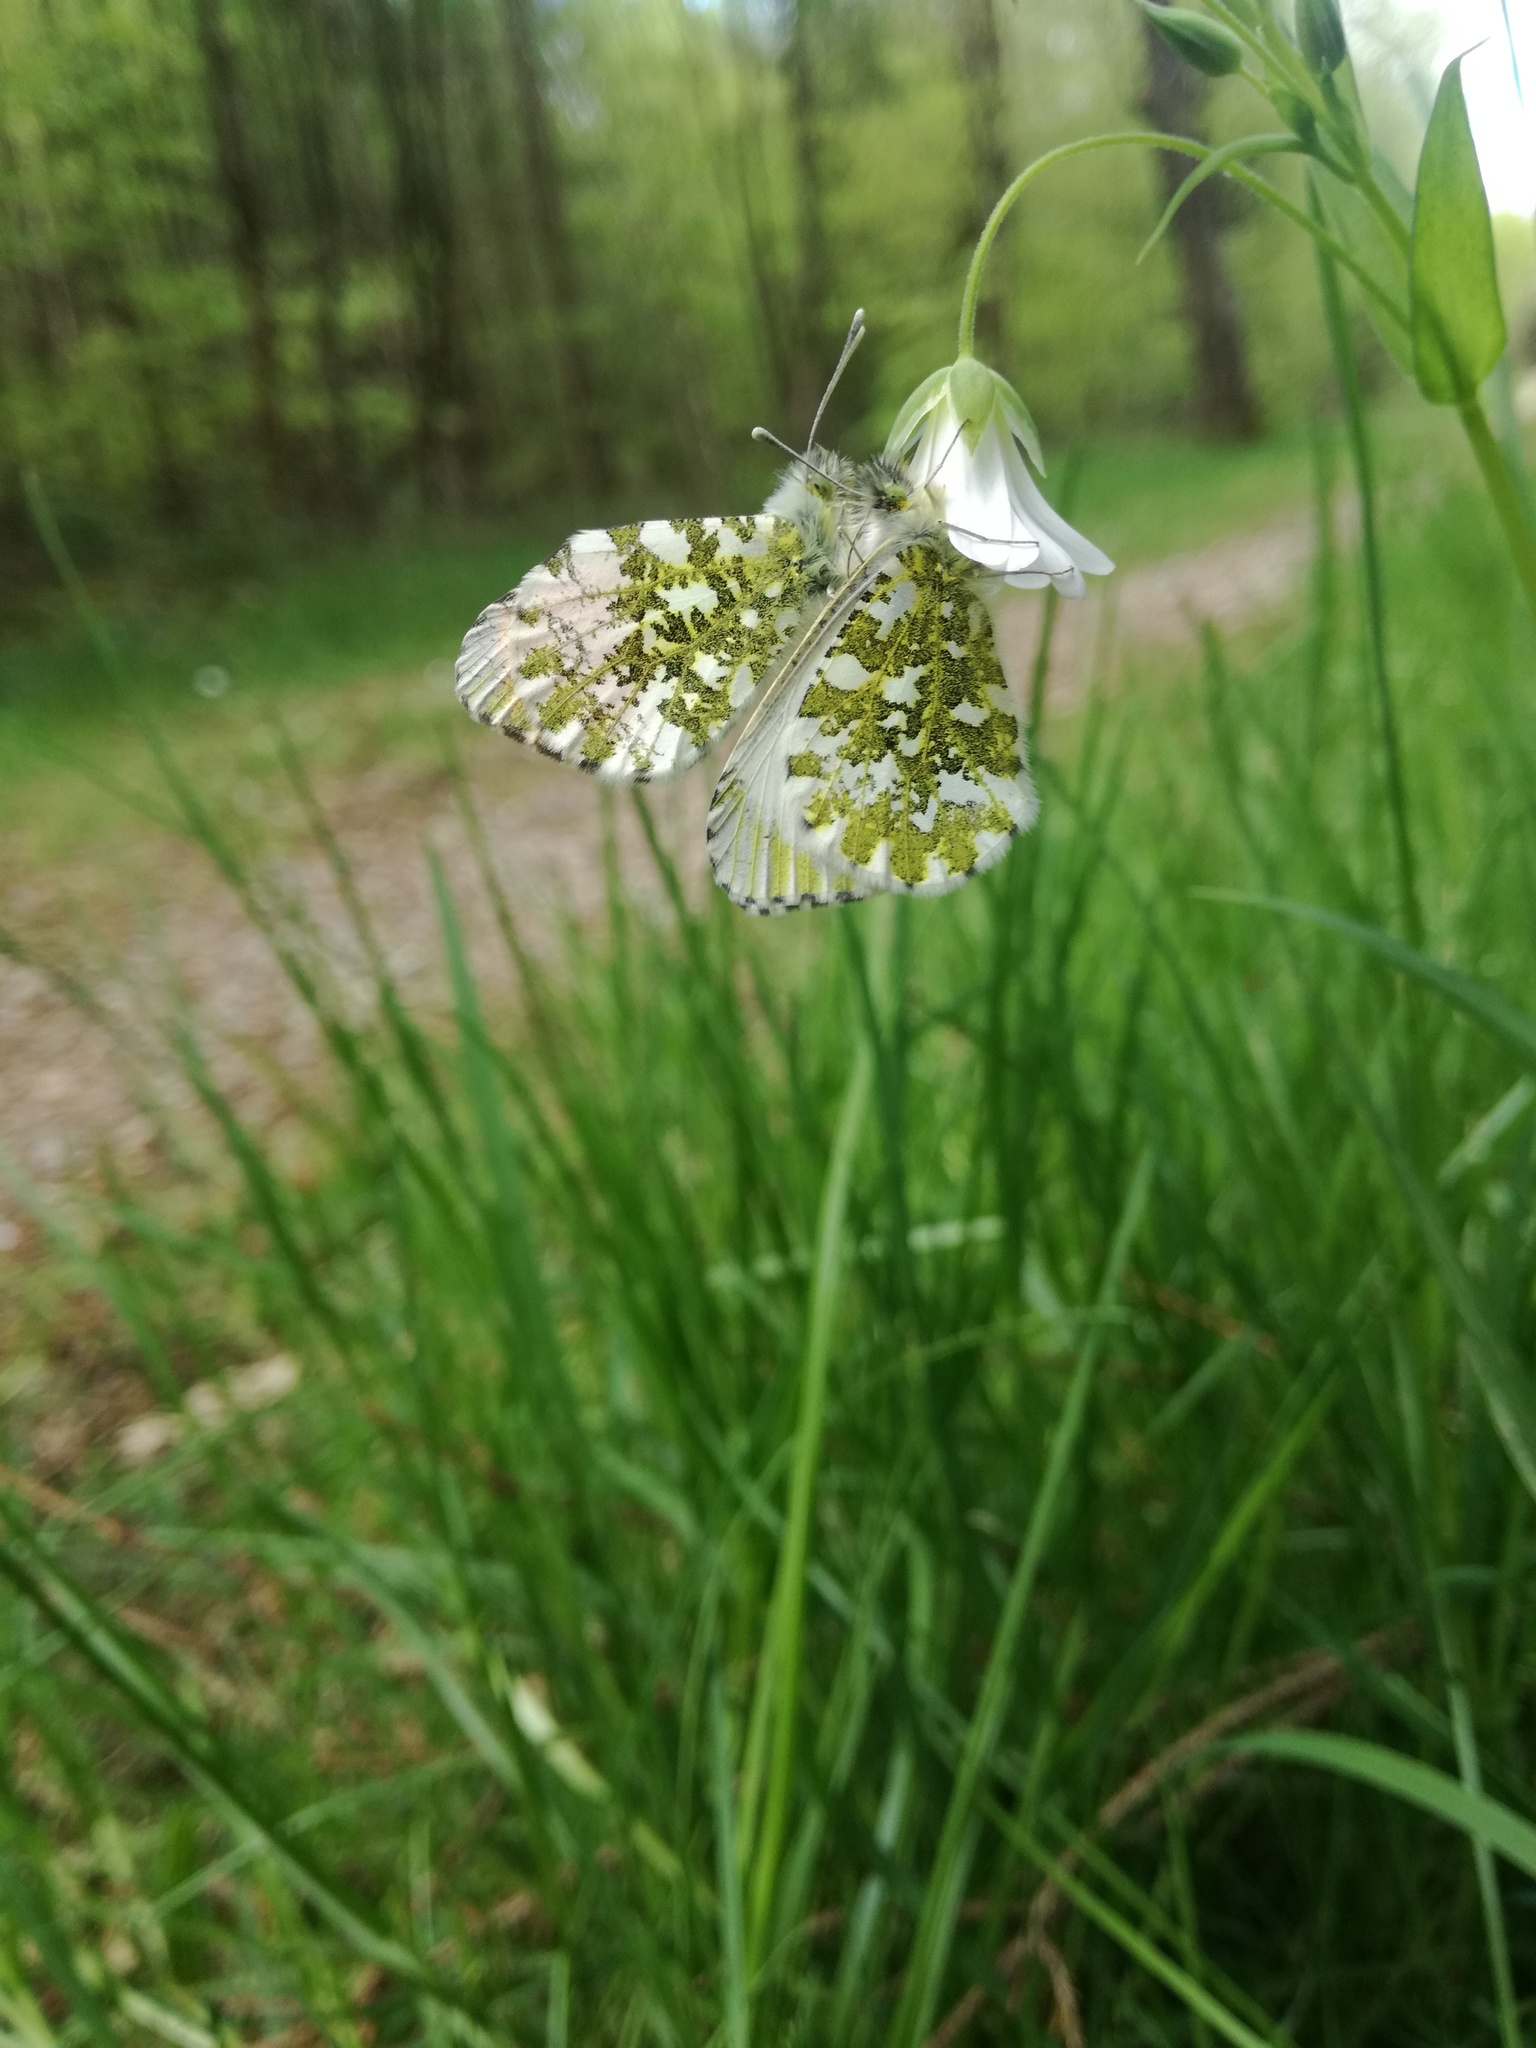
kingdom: Animalia
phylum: Arthropoda
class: Insecta
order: Lepidoptera
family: Pieridae
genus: Anthocharis
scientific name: Anthocharis cardamines
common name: Orange-tip
